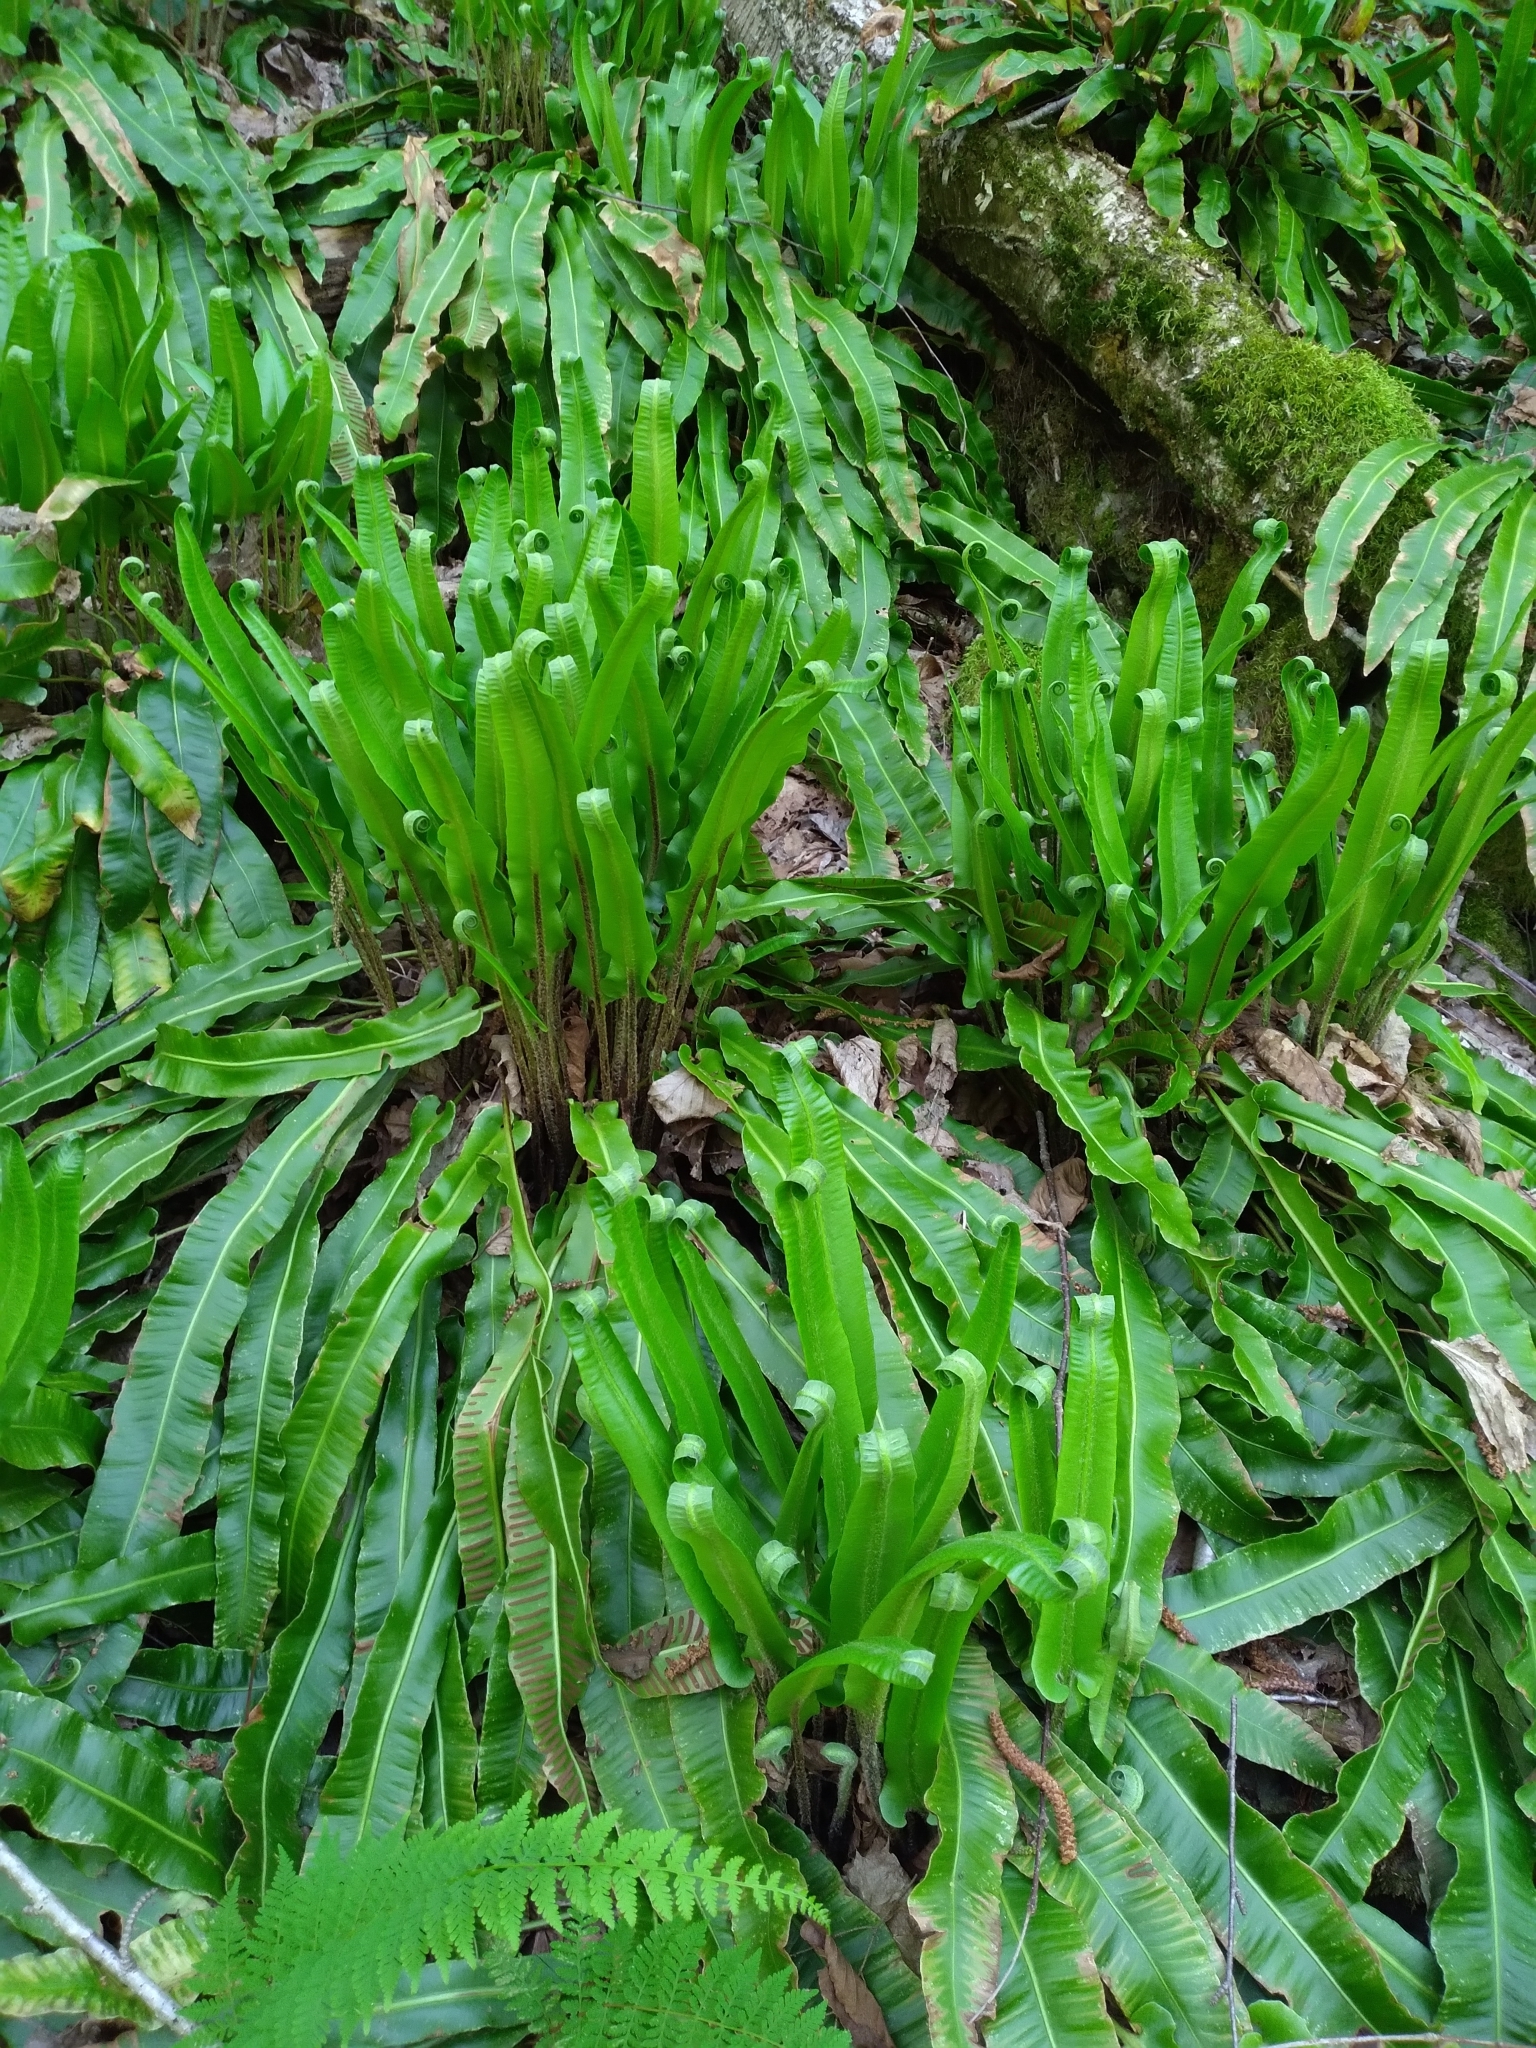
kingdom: Plantae
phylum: Tracheophyta
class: Polypodiopsida
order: Polypodiales
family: Aspleniaceae
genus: Asplenium
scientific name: Asplenium scolopendrium
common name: Hart's-tongue fern
